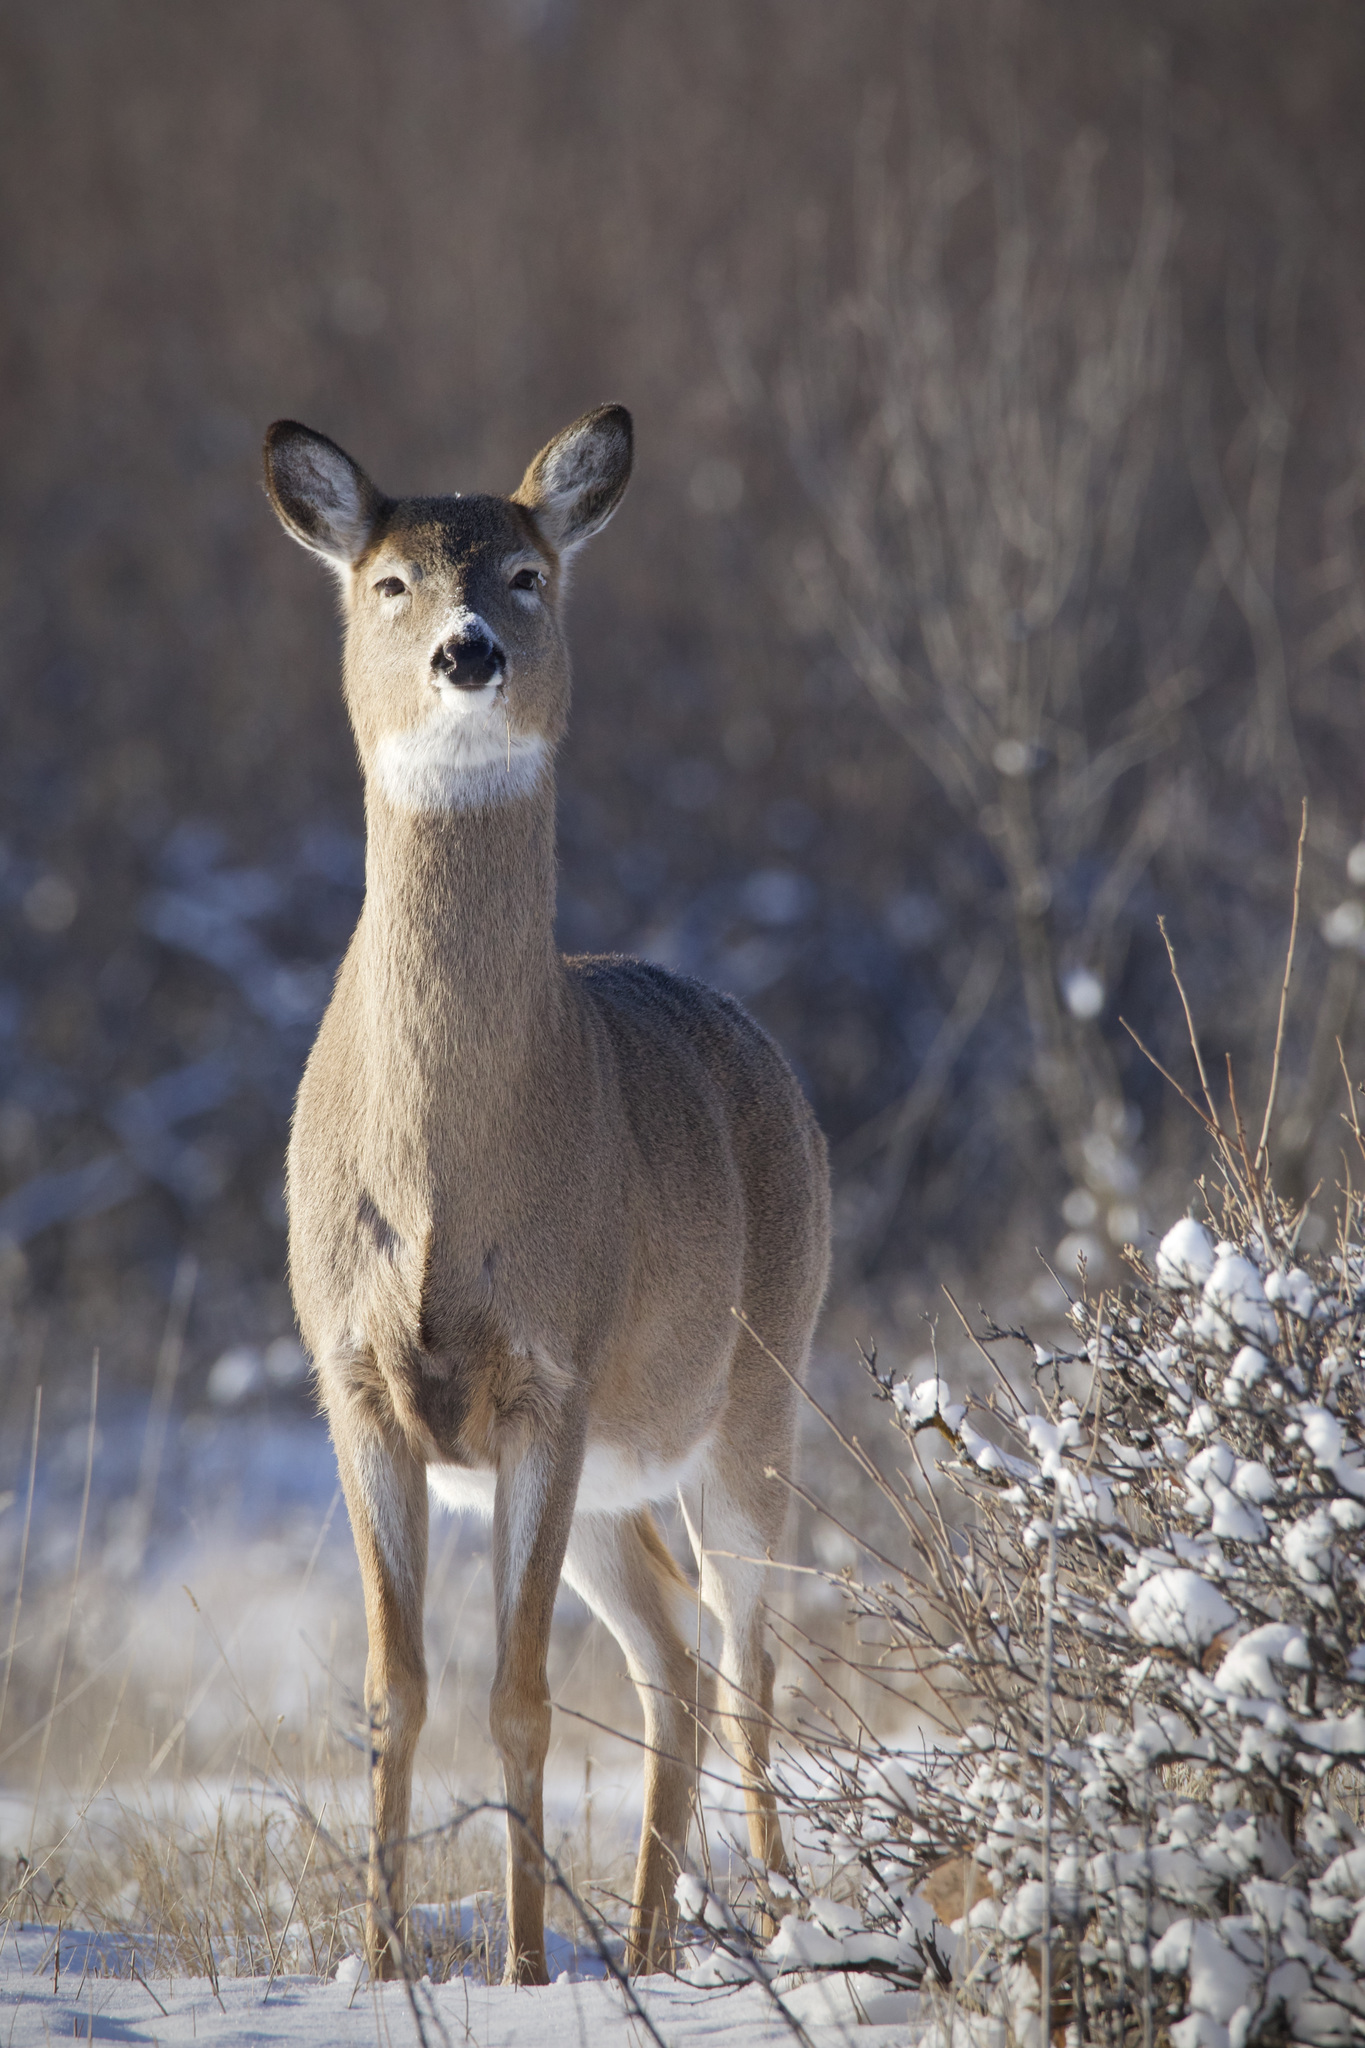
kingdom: Animalia
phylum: Chordata
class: Mammalia
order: Artiodactyla
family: Cervidae
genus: Odocoileus
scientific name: Odocoileus virginianus
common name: White-tailed deer
